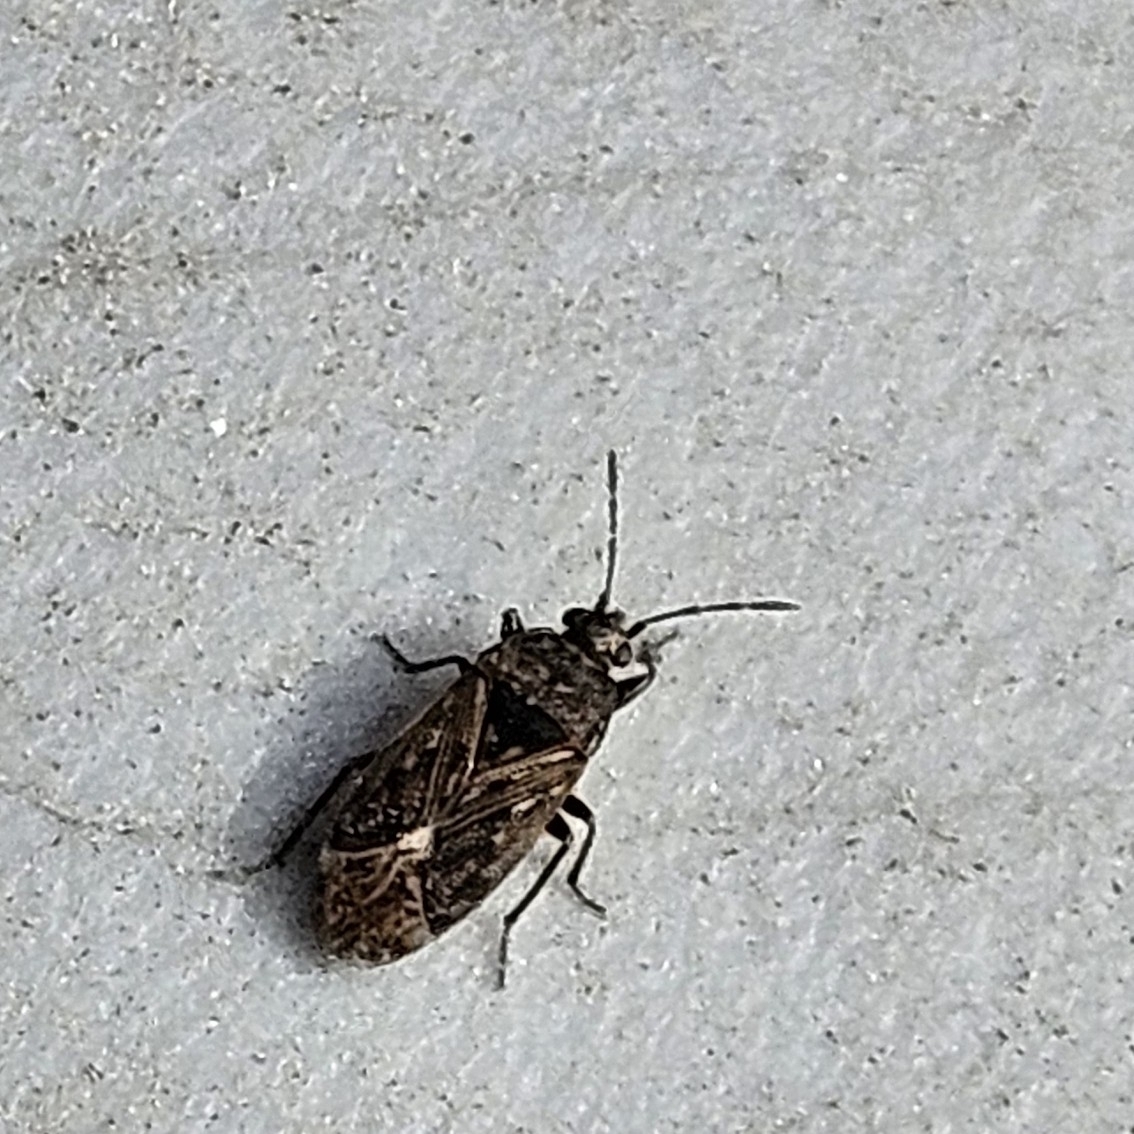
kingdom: Animalia
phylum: Arthropoda
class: Insecta
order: Hemiptera
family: Rhyparochromidae
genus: Peritrechus
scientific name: Peritrechus convivus
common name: Seed bug
